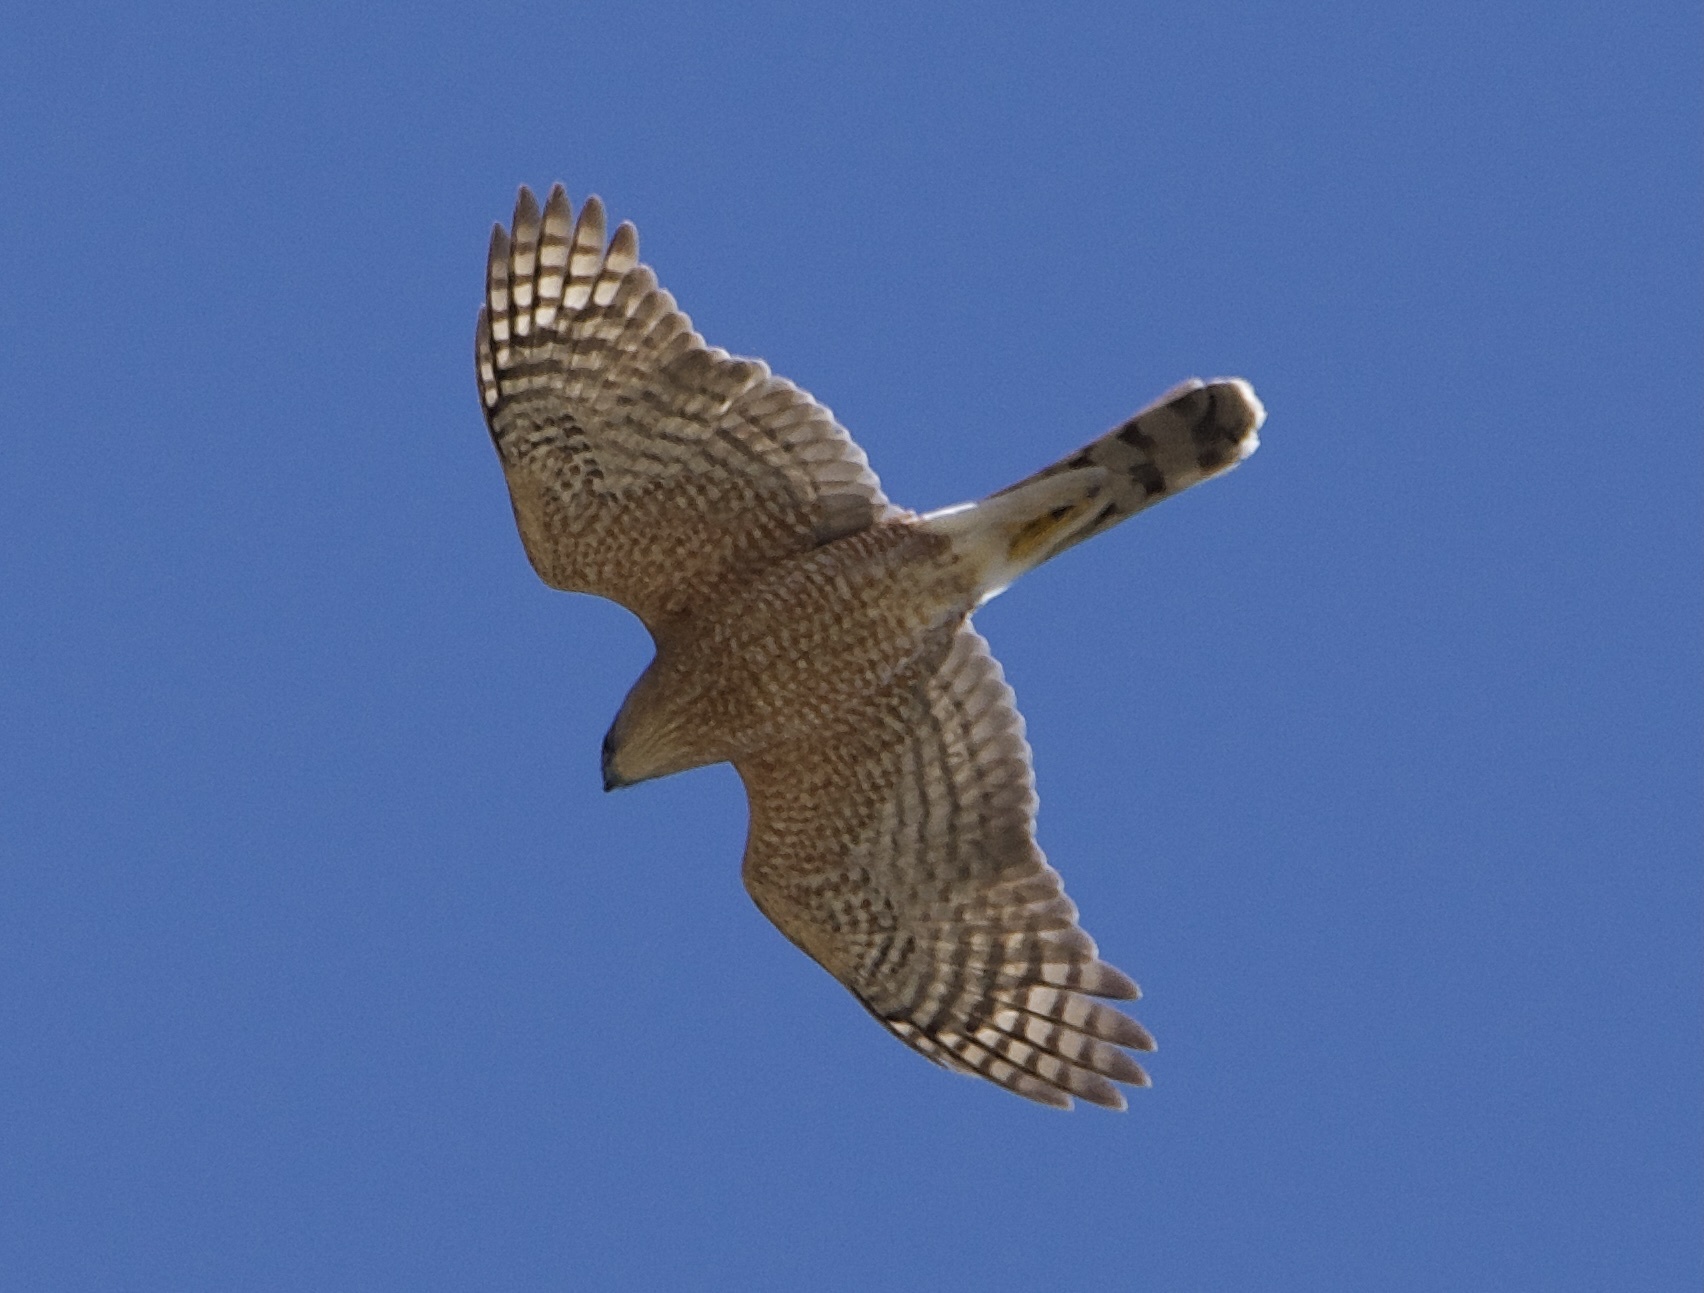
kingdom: Animalia
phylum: Chordata
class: Aves
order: Accipitriformes
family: Accipitridae
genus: Accipiter
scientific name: Accipiter cooperii
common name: Cooper's hawk
